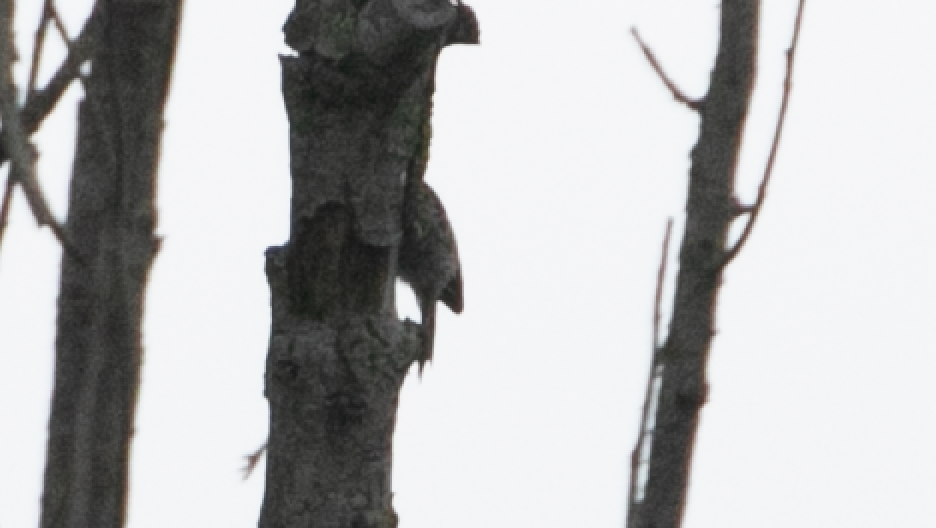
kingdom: Animalia
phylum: Chordata
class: Aves
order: Passeriformes
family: Certhiidae
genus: Certhia
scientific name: Certhia brachydactyla
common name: Short-toed treecreeper
